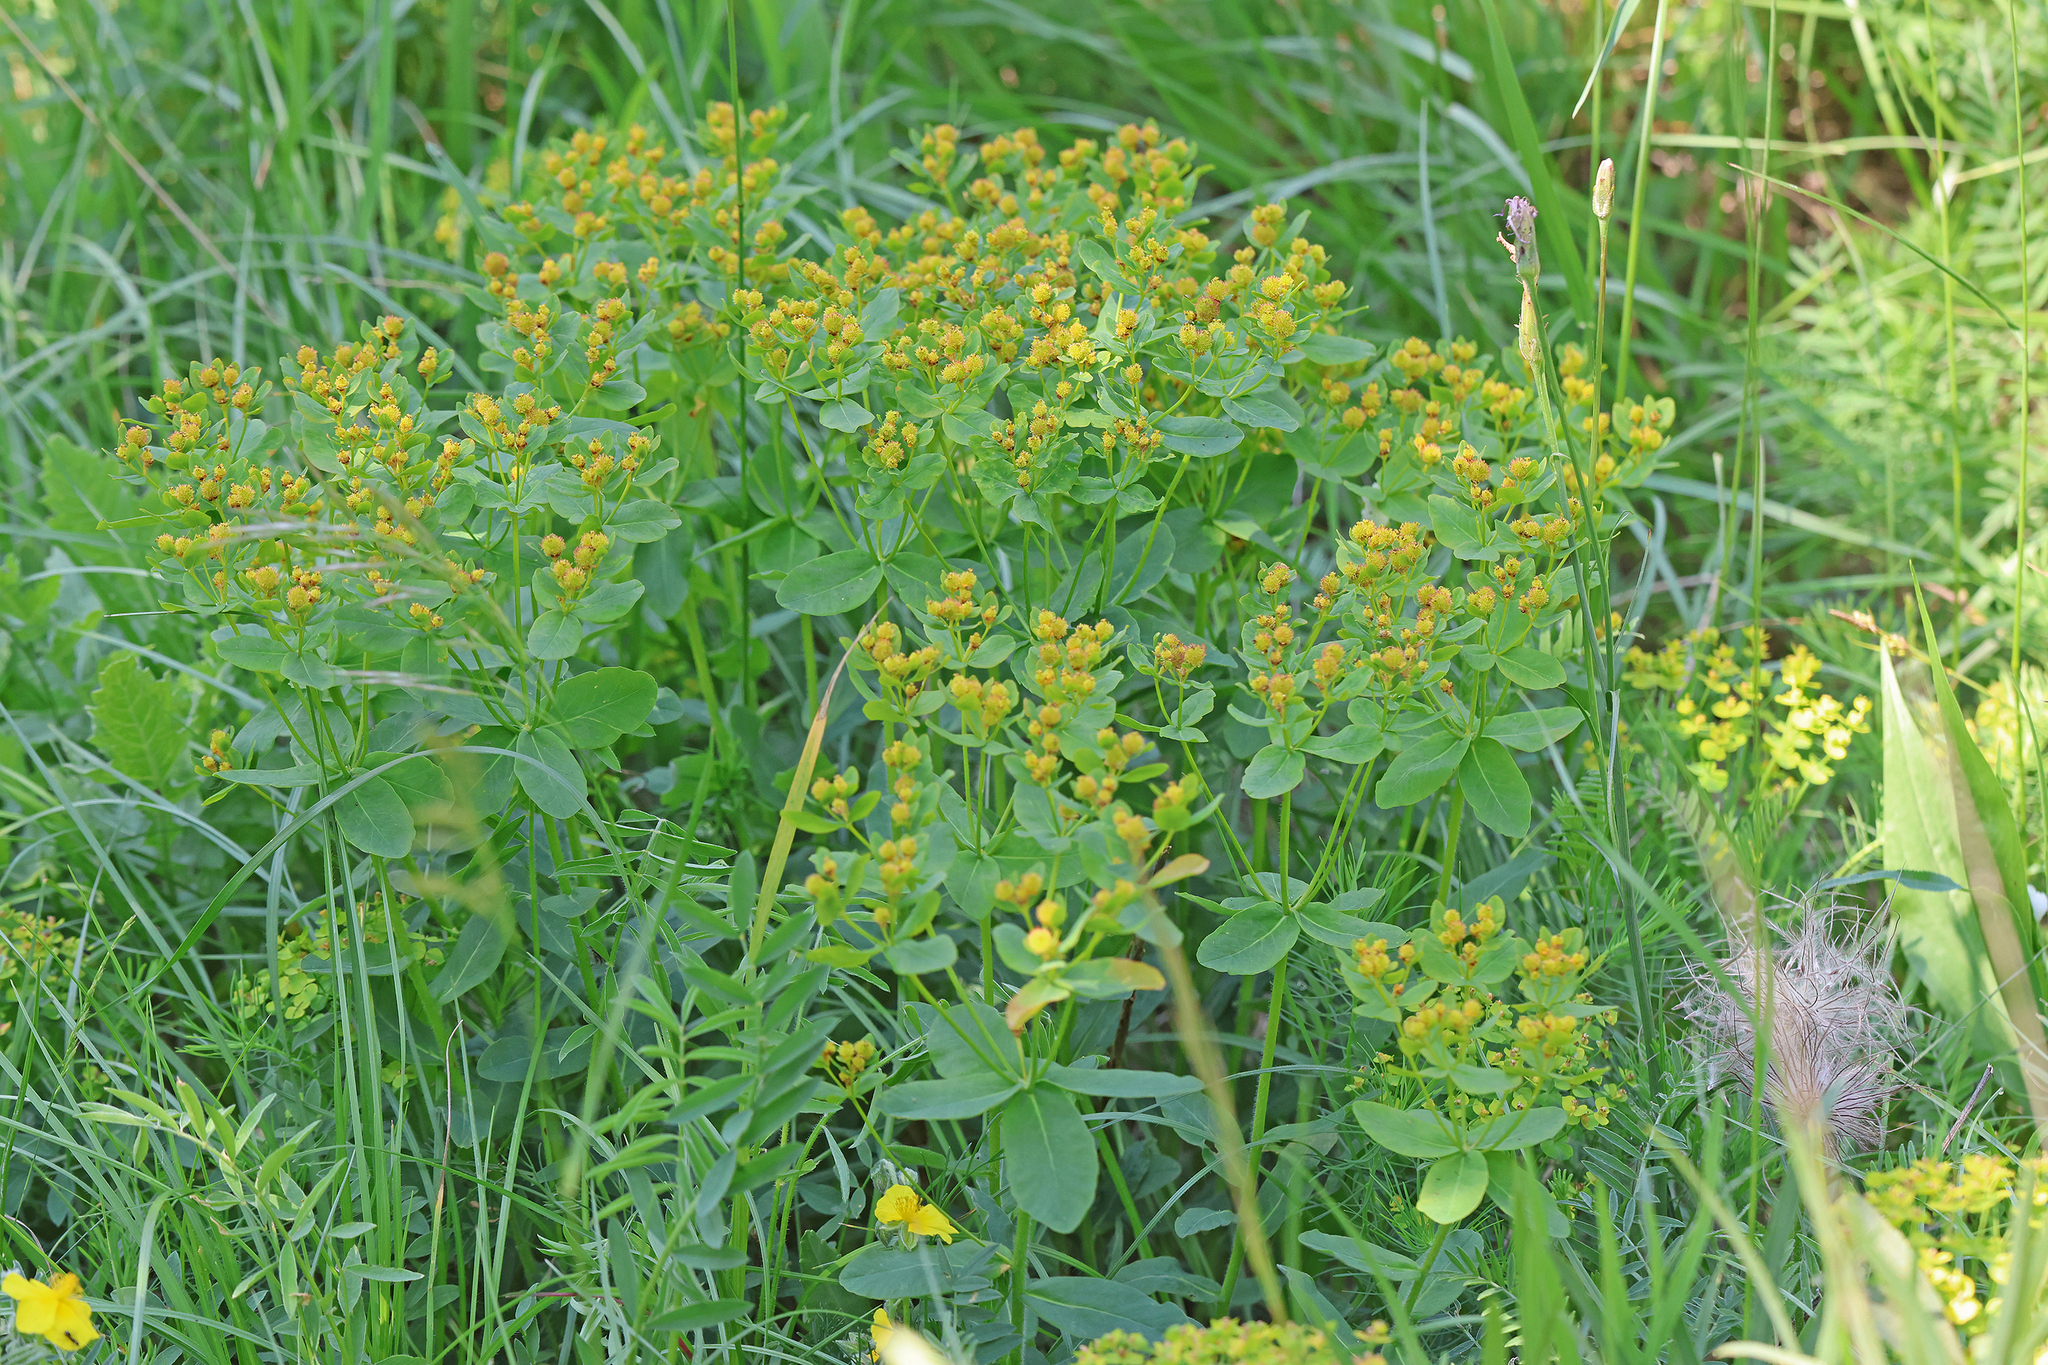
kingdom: Plantae
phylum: Tracheophyta
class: Magnoliopsida
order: Malpighiales
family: Euphorbiaceae
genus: Euphorbia
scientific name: Euphorbia epithymoides
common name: Cushion spurge
